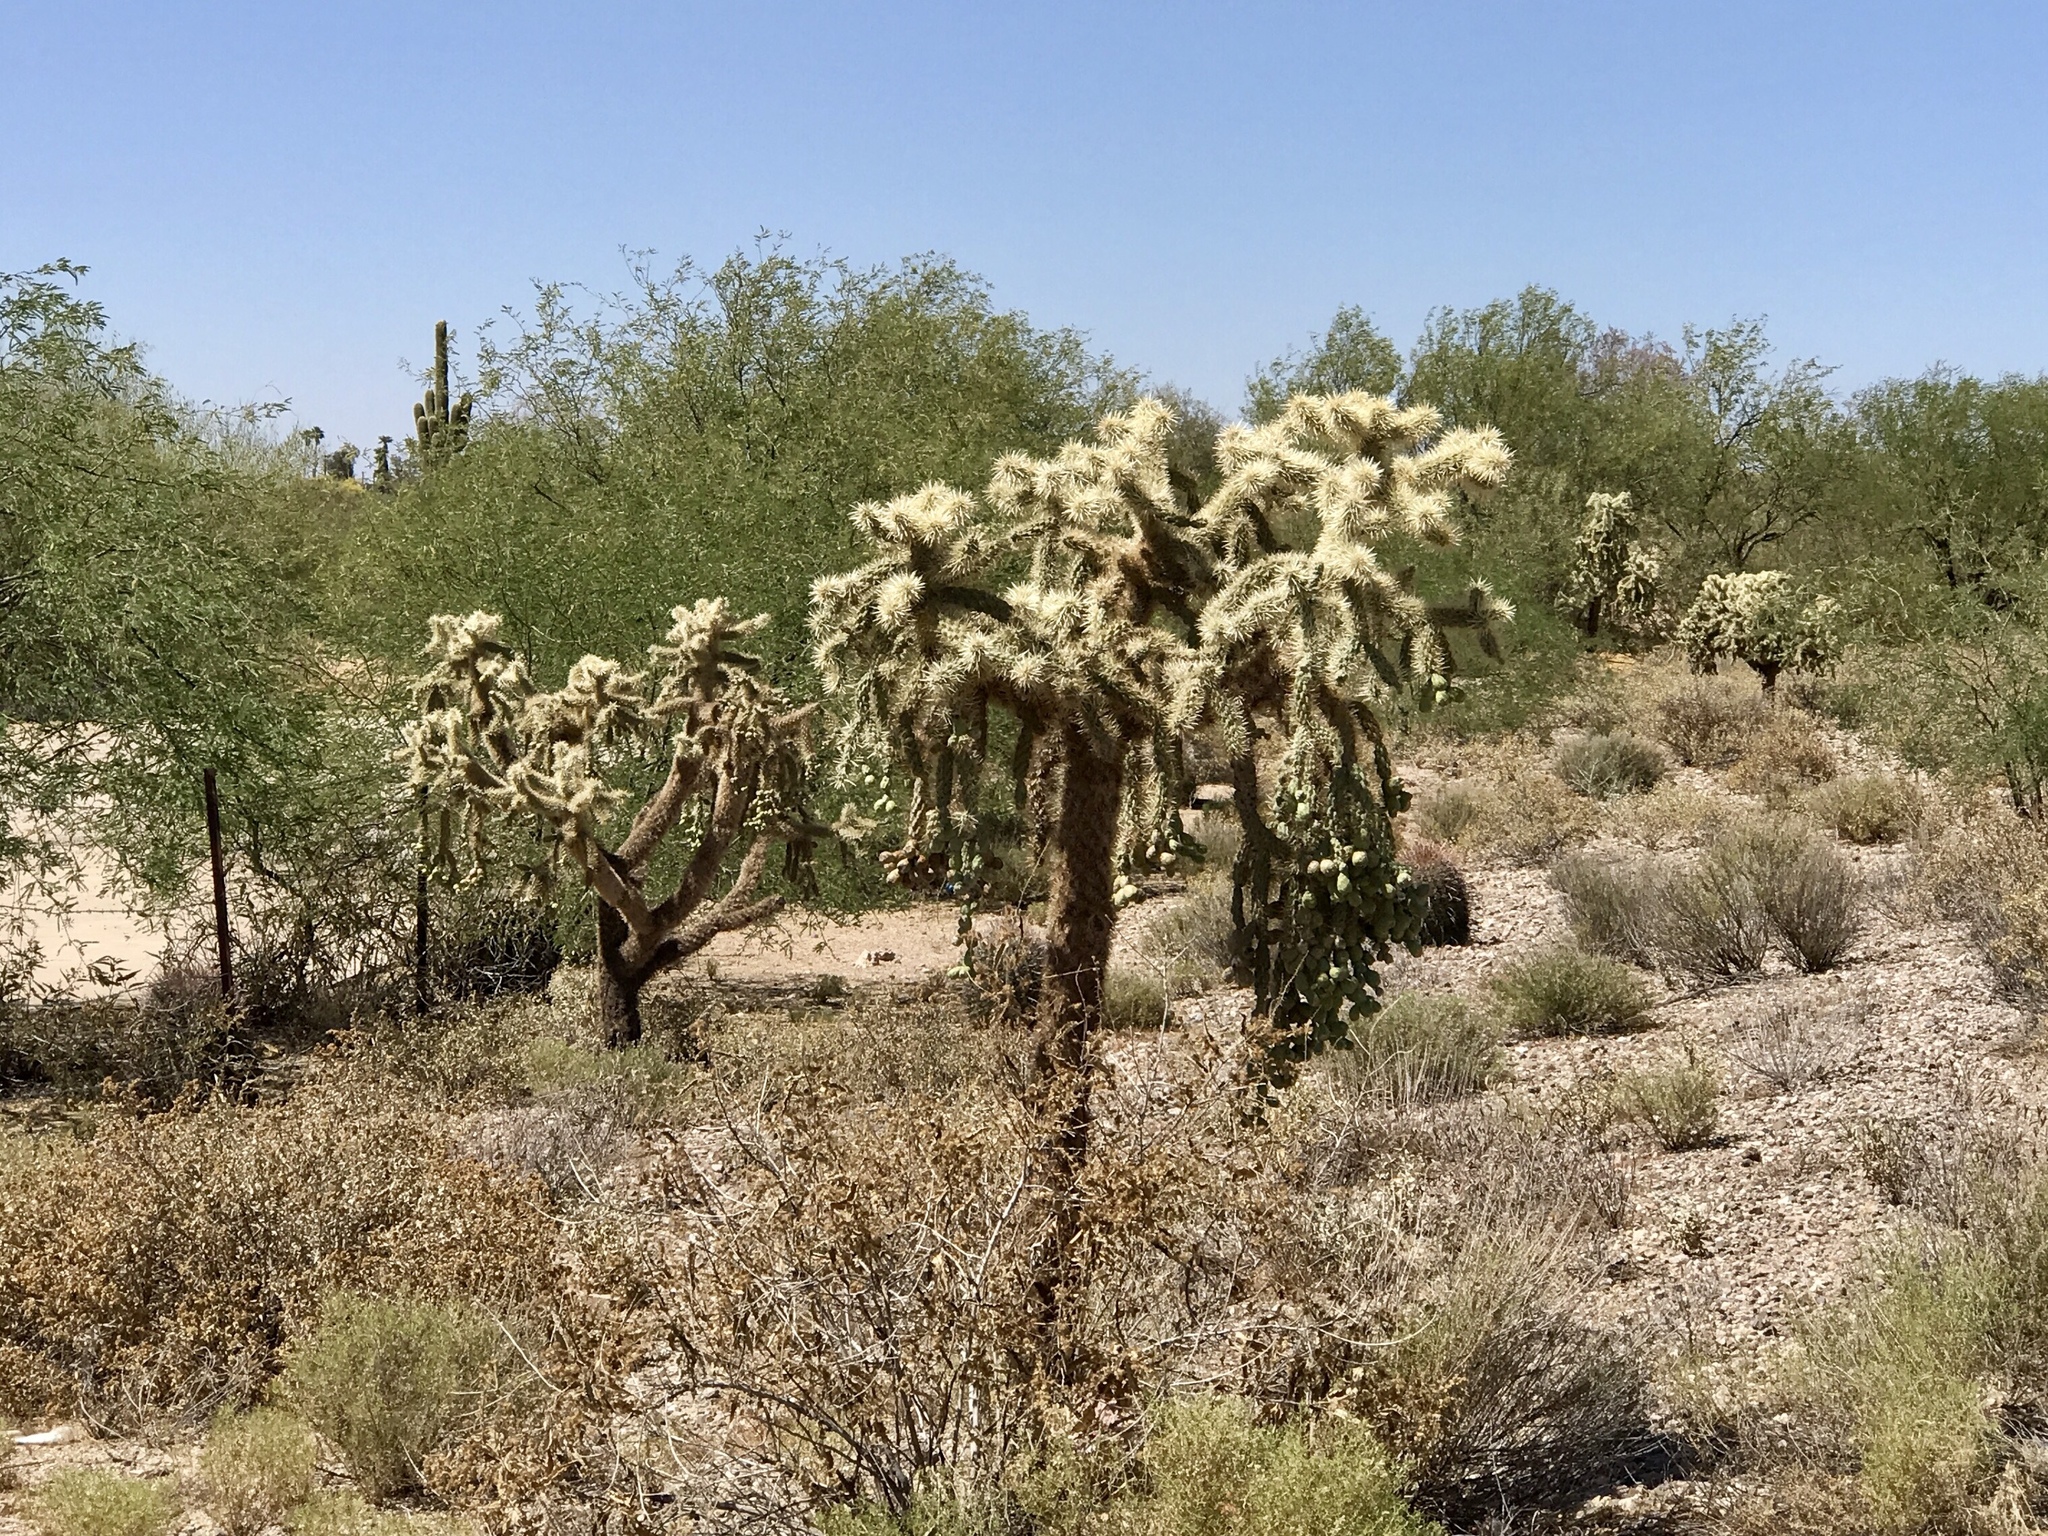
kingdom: Plantae
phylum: Tracheophyta
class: Magnoliopsida
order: Caryophyllales
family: Cactaceae
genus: Cylindropuntia
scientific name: Cylindropuntia fulgida
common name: Jumping cholla
